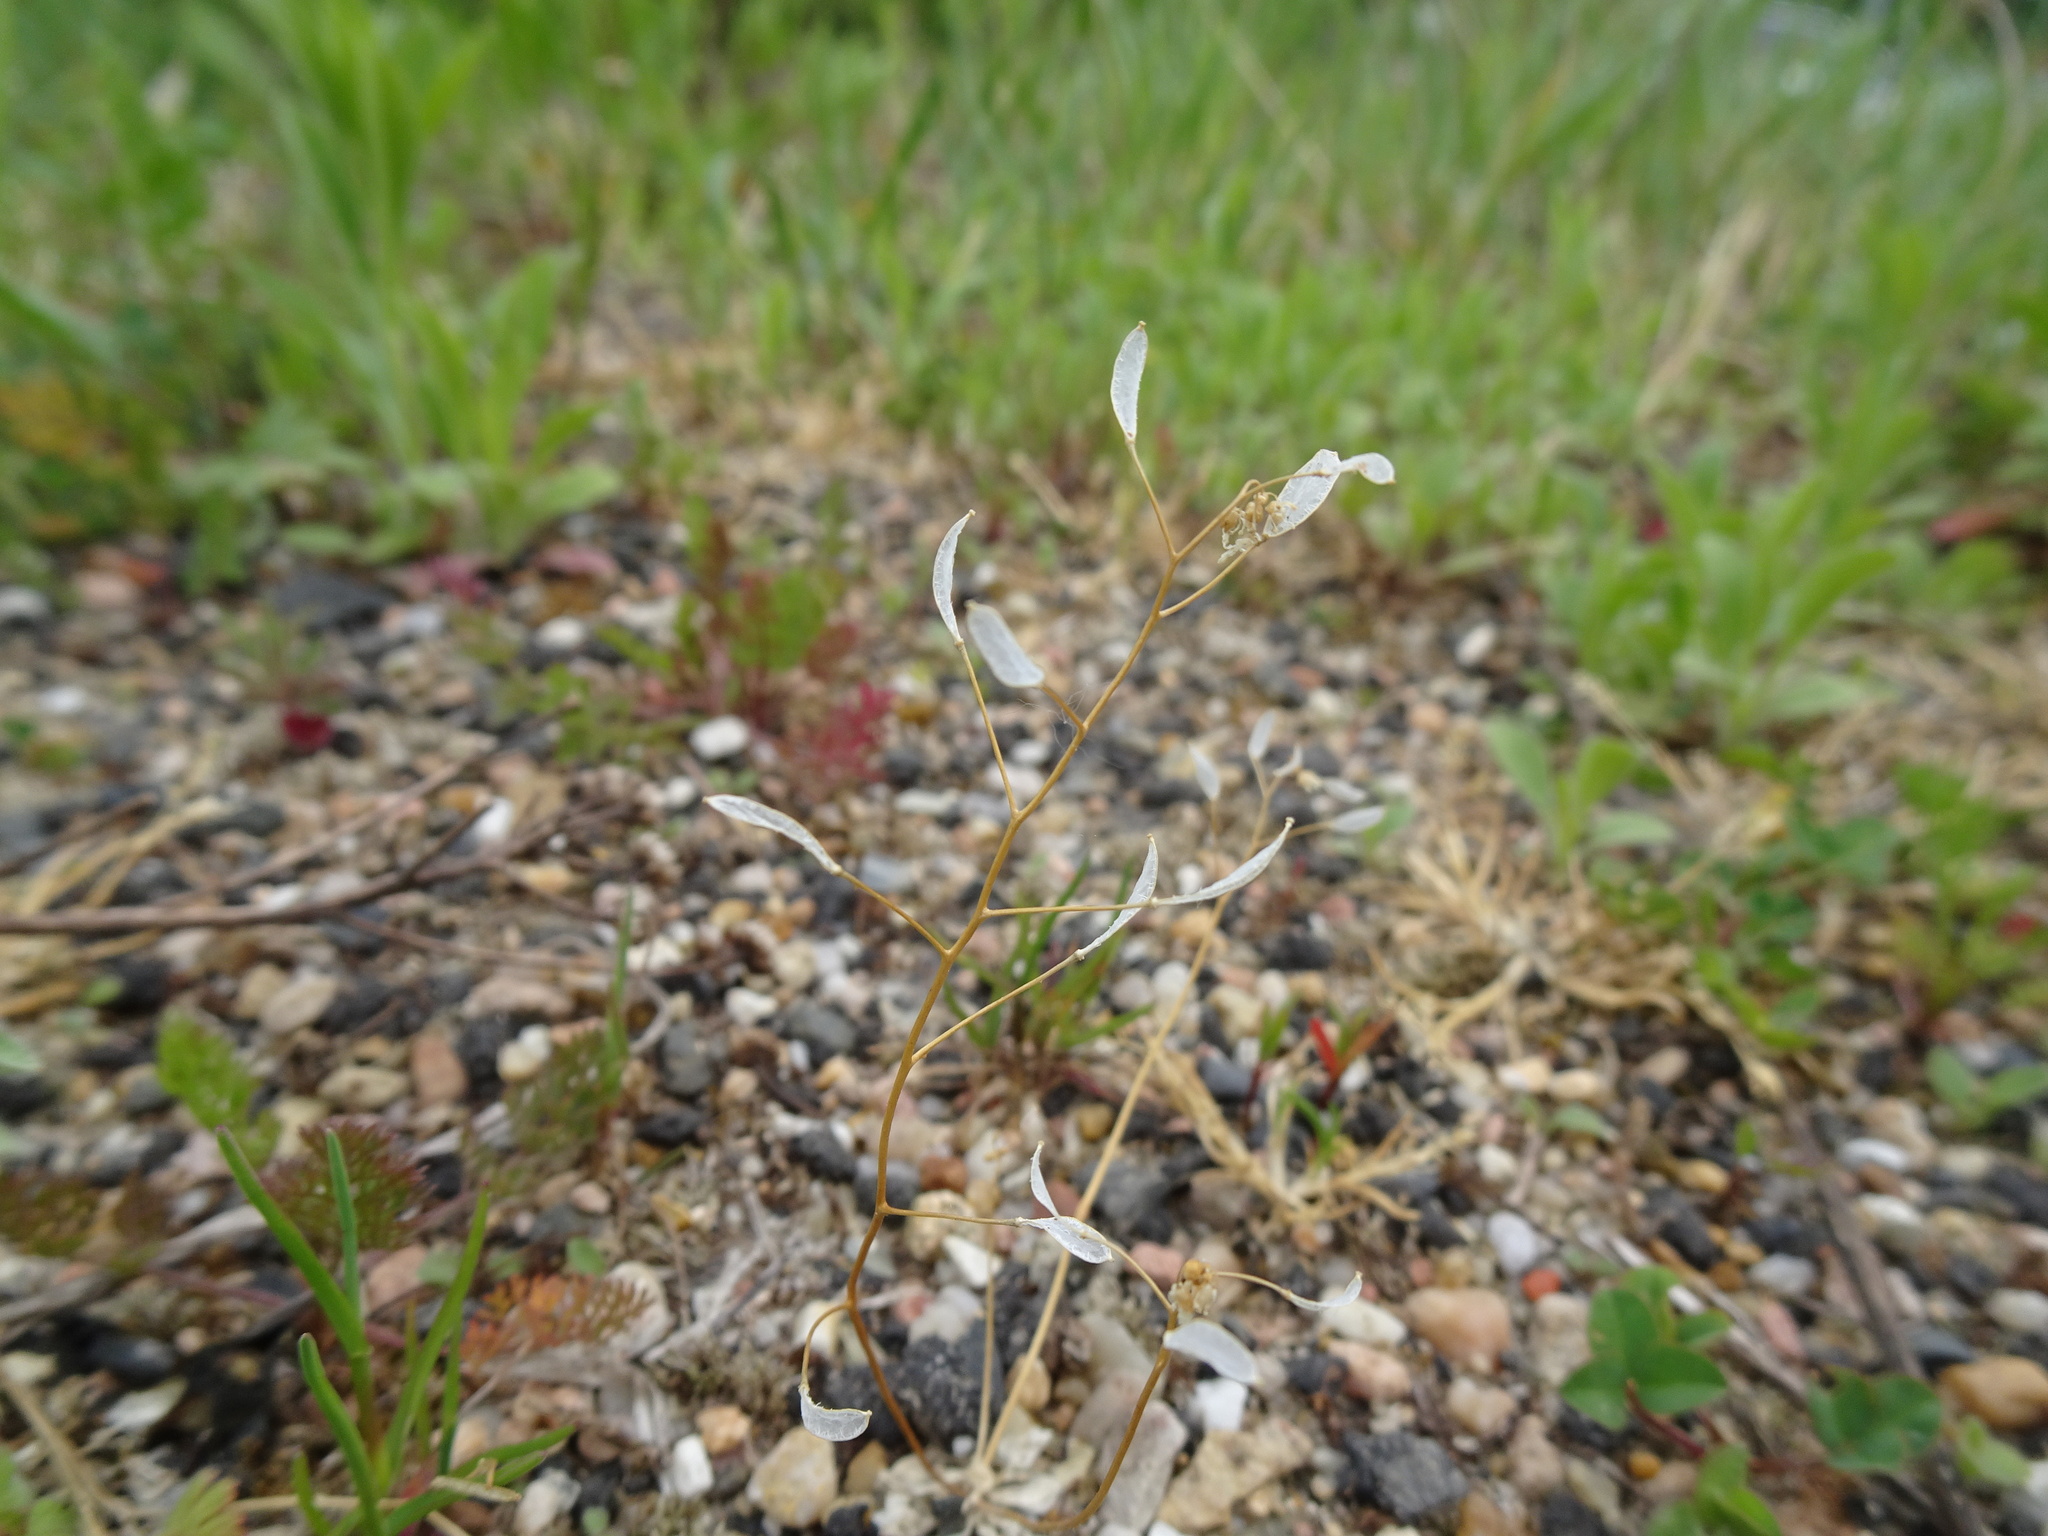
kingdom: Plantae
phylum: Tracheophyta
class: Magnoliopsida
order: Brassicales
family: Brassicaceae
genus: Draba
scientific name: Draba verna
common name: Spring draba
